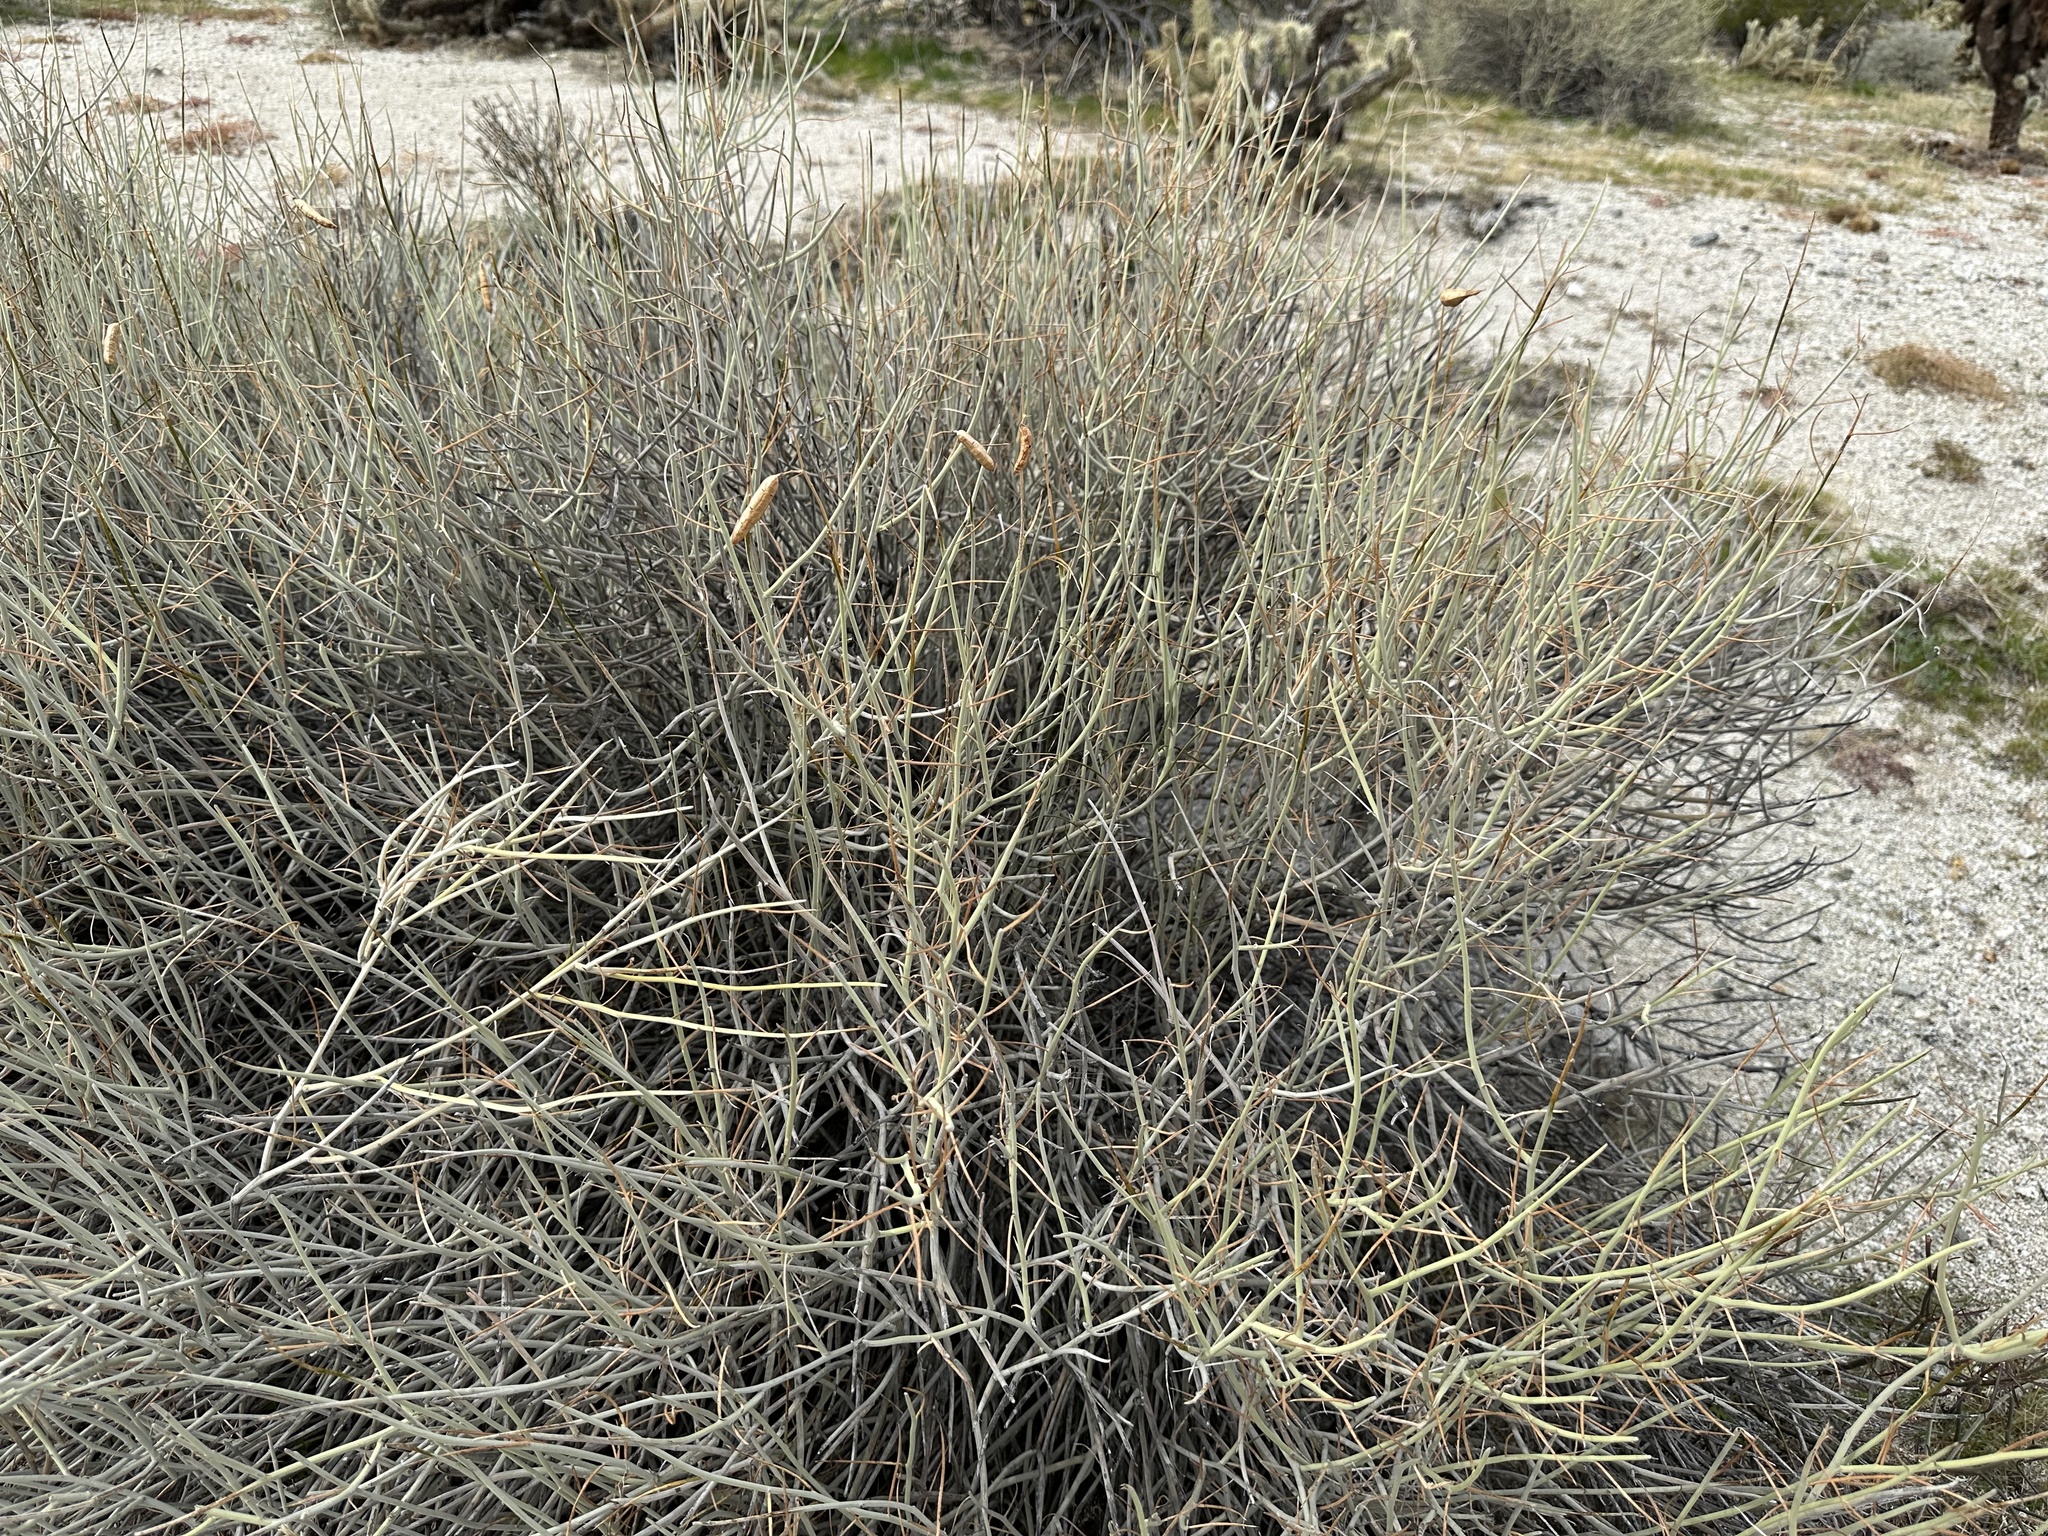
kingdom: Plantae
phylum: Tracheophyta
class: Magnoliopsida
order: Fabales
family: Fabaceae
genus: Senna
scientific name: Senna armata
